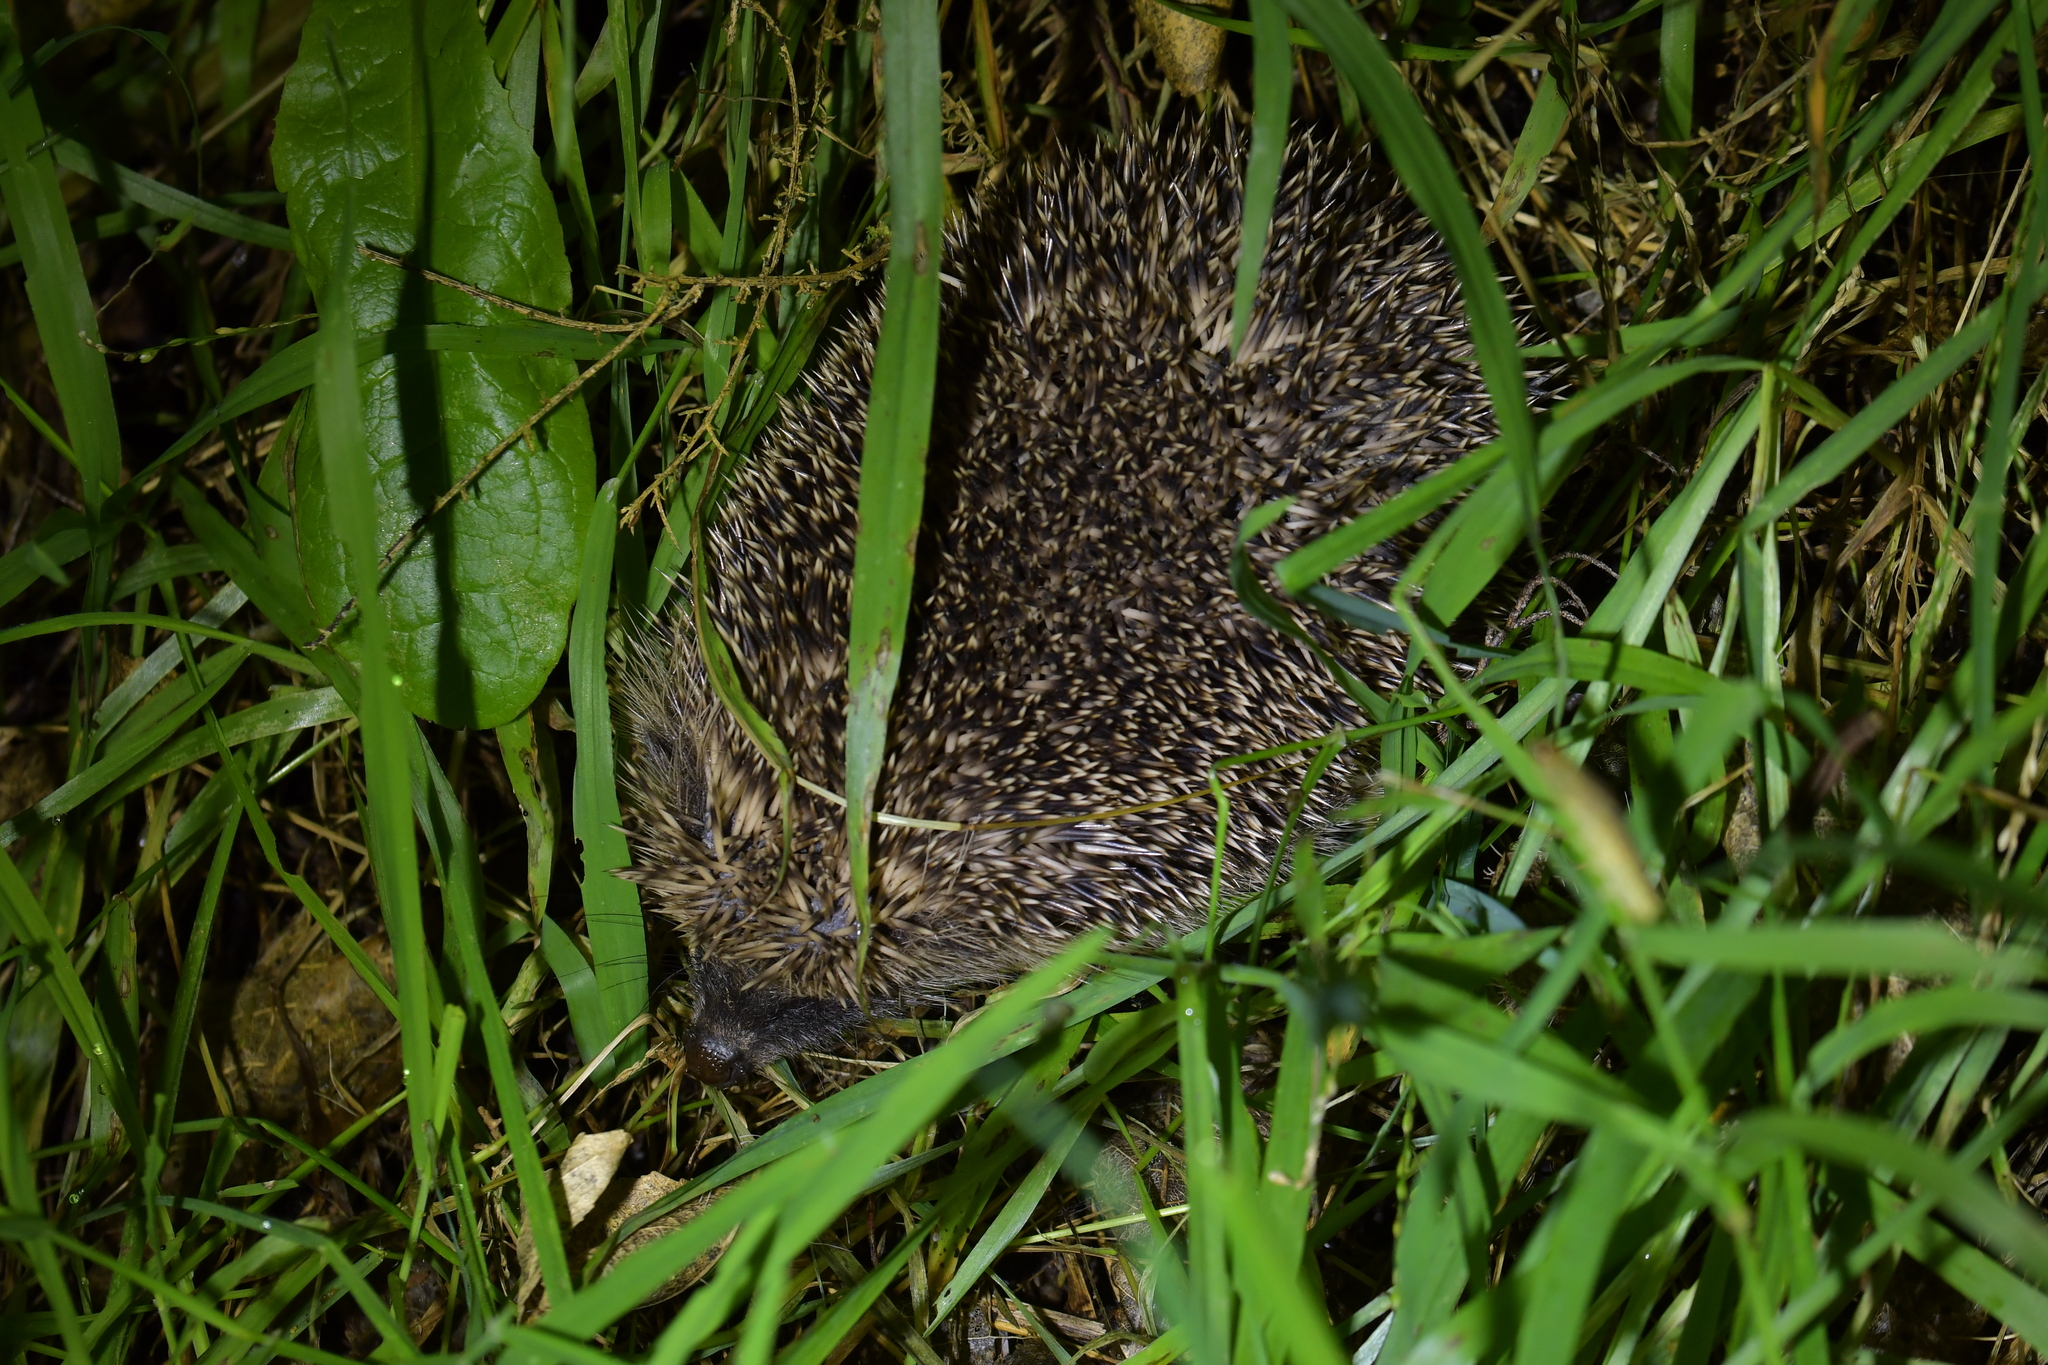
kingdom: Animalia
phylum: Chordata
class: Mammalia
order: Erinaceomorpha
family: Erinaceidae
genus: Erinaceus
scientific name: Erinaceus europaeus
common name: West european hedgehog
